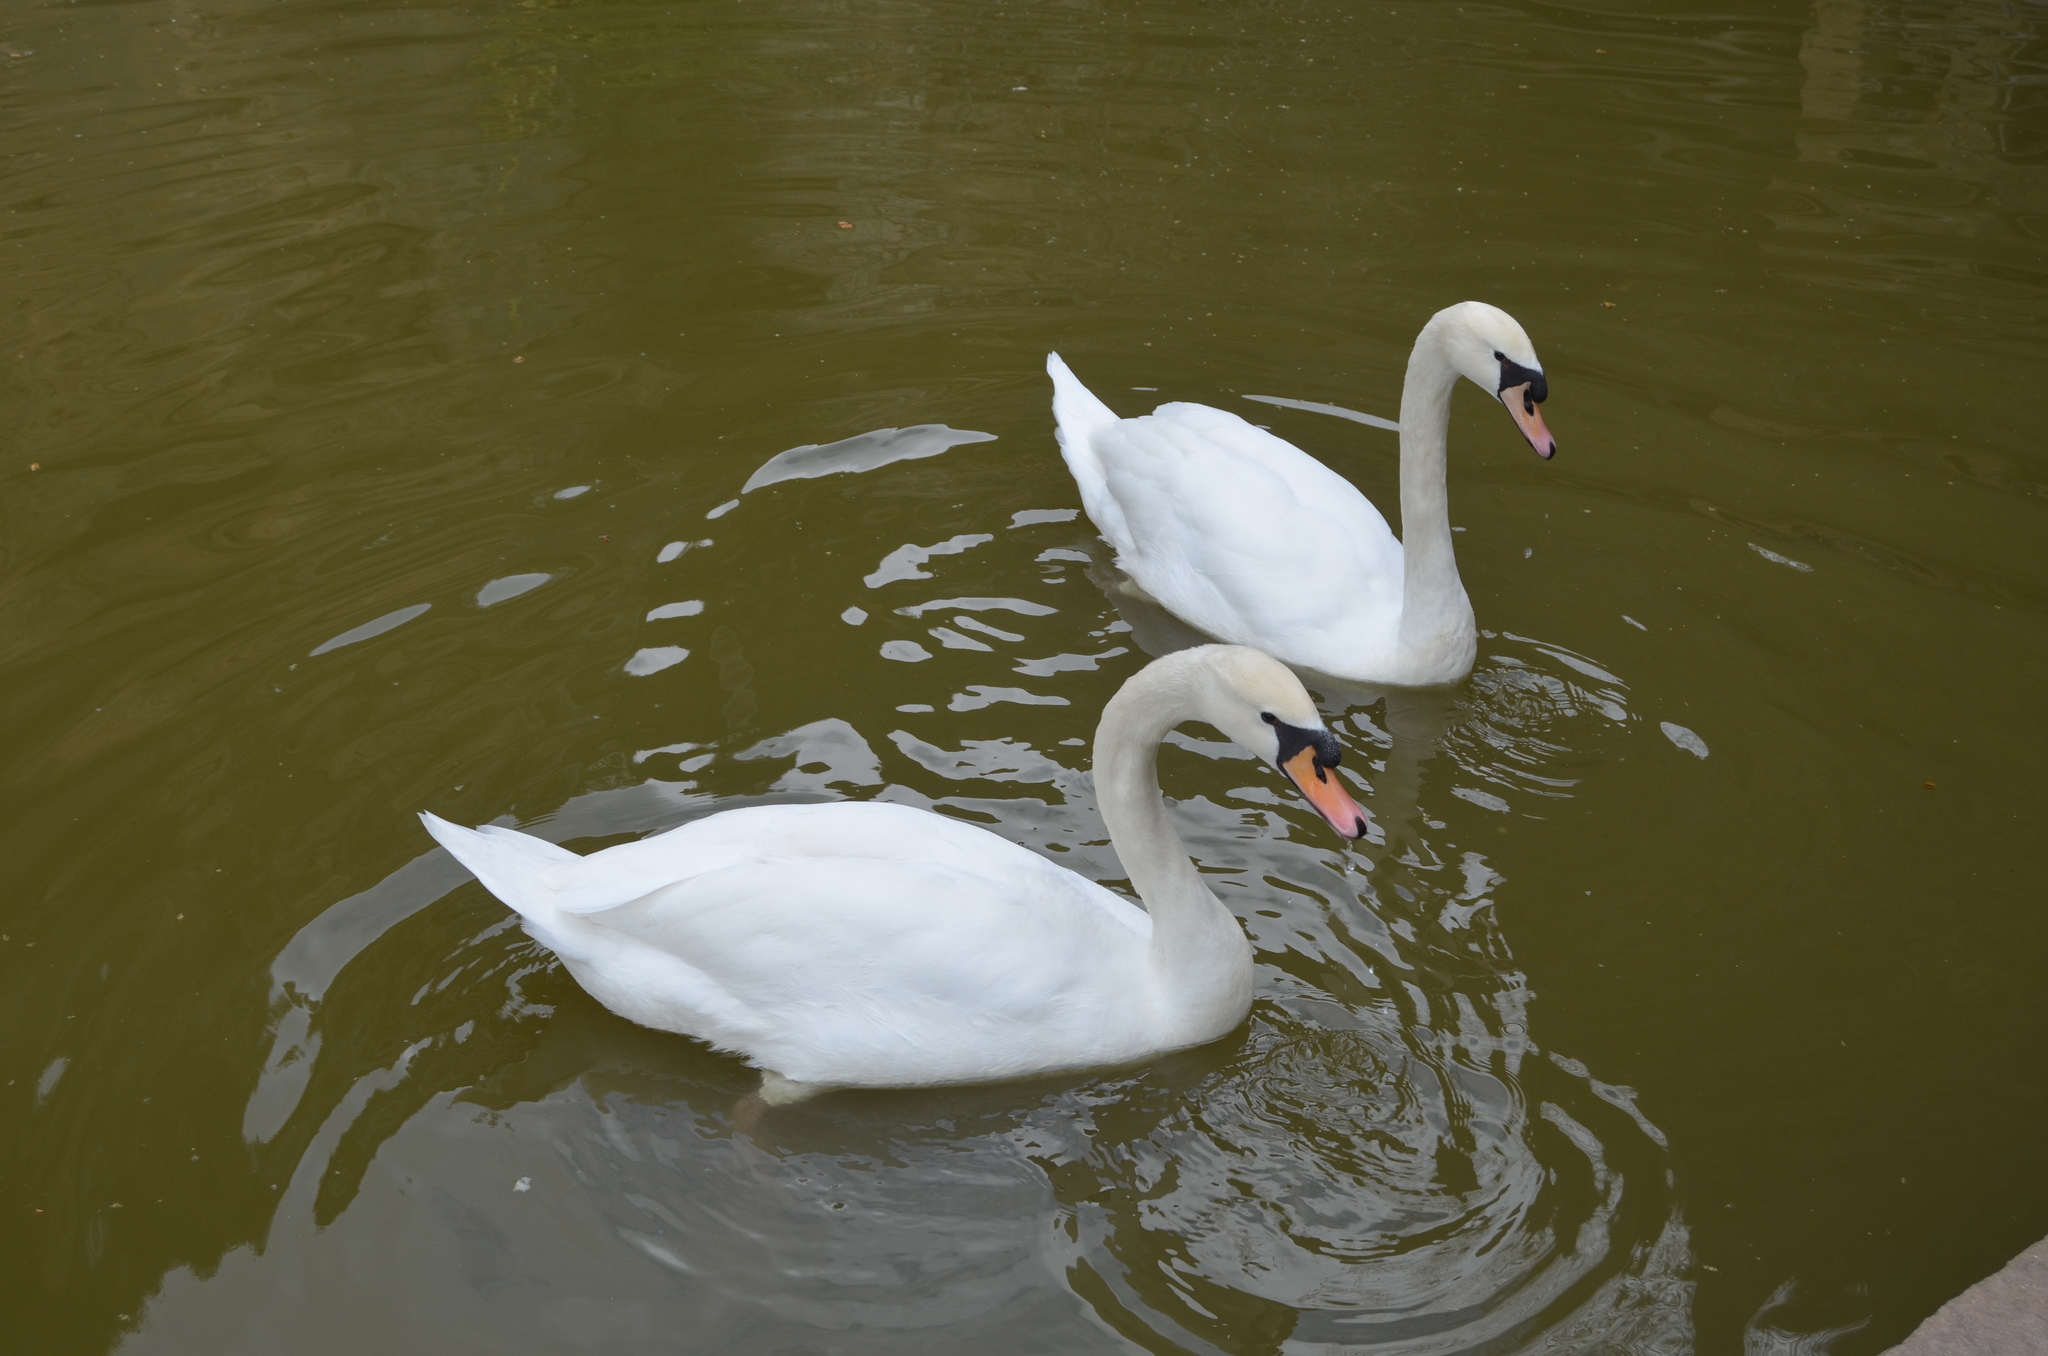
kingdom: Animalia
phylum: Chordata
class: Aves
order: Anseriformes
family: Anatidae
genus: Cygnus
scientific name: Cygnus olor
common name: Mute swan
